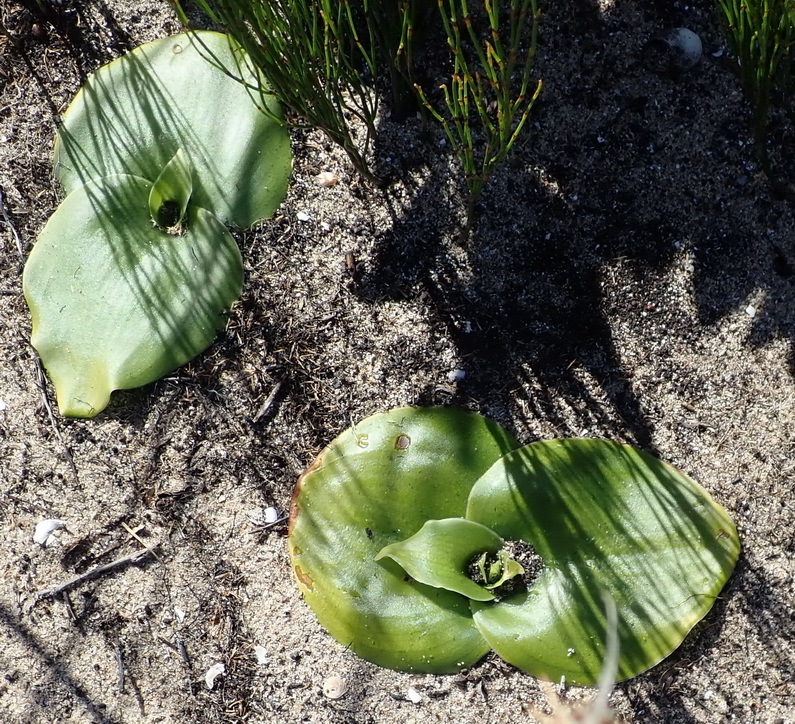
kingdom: Plantae
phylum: Tracheophyta
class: Liliopsida
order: Asparagales
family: Orchidaceae
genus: Satyrium
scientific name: Satyrium princeps
